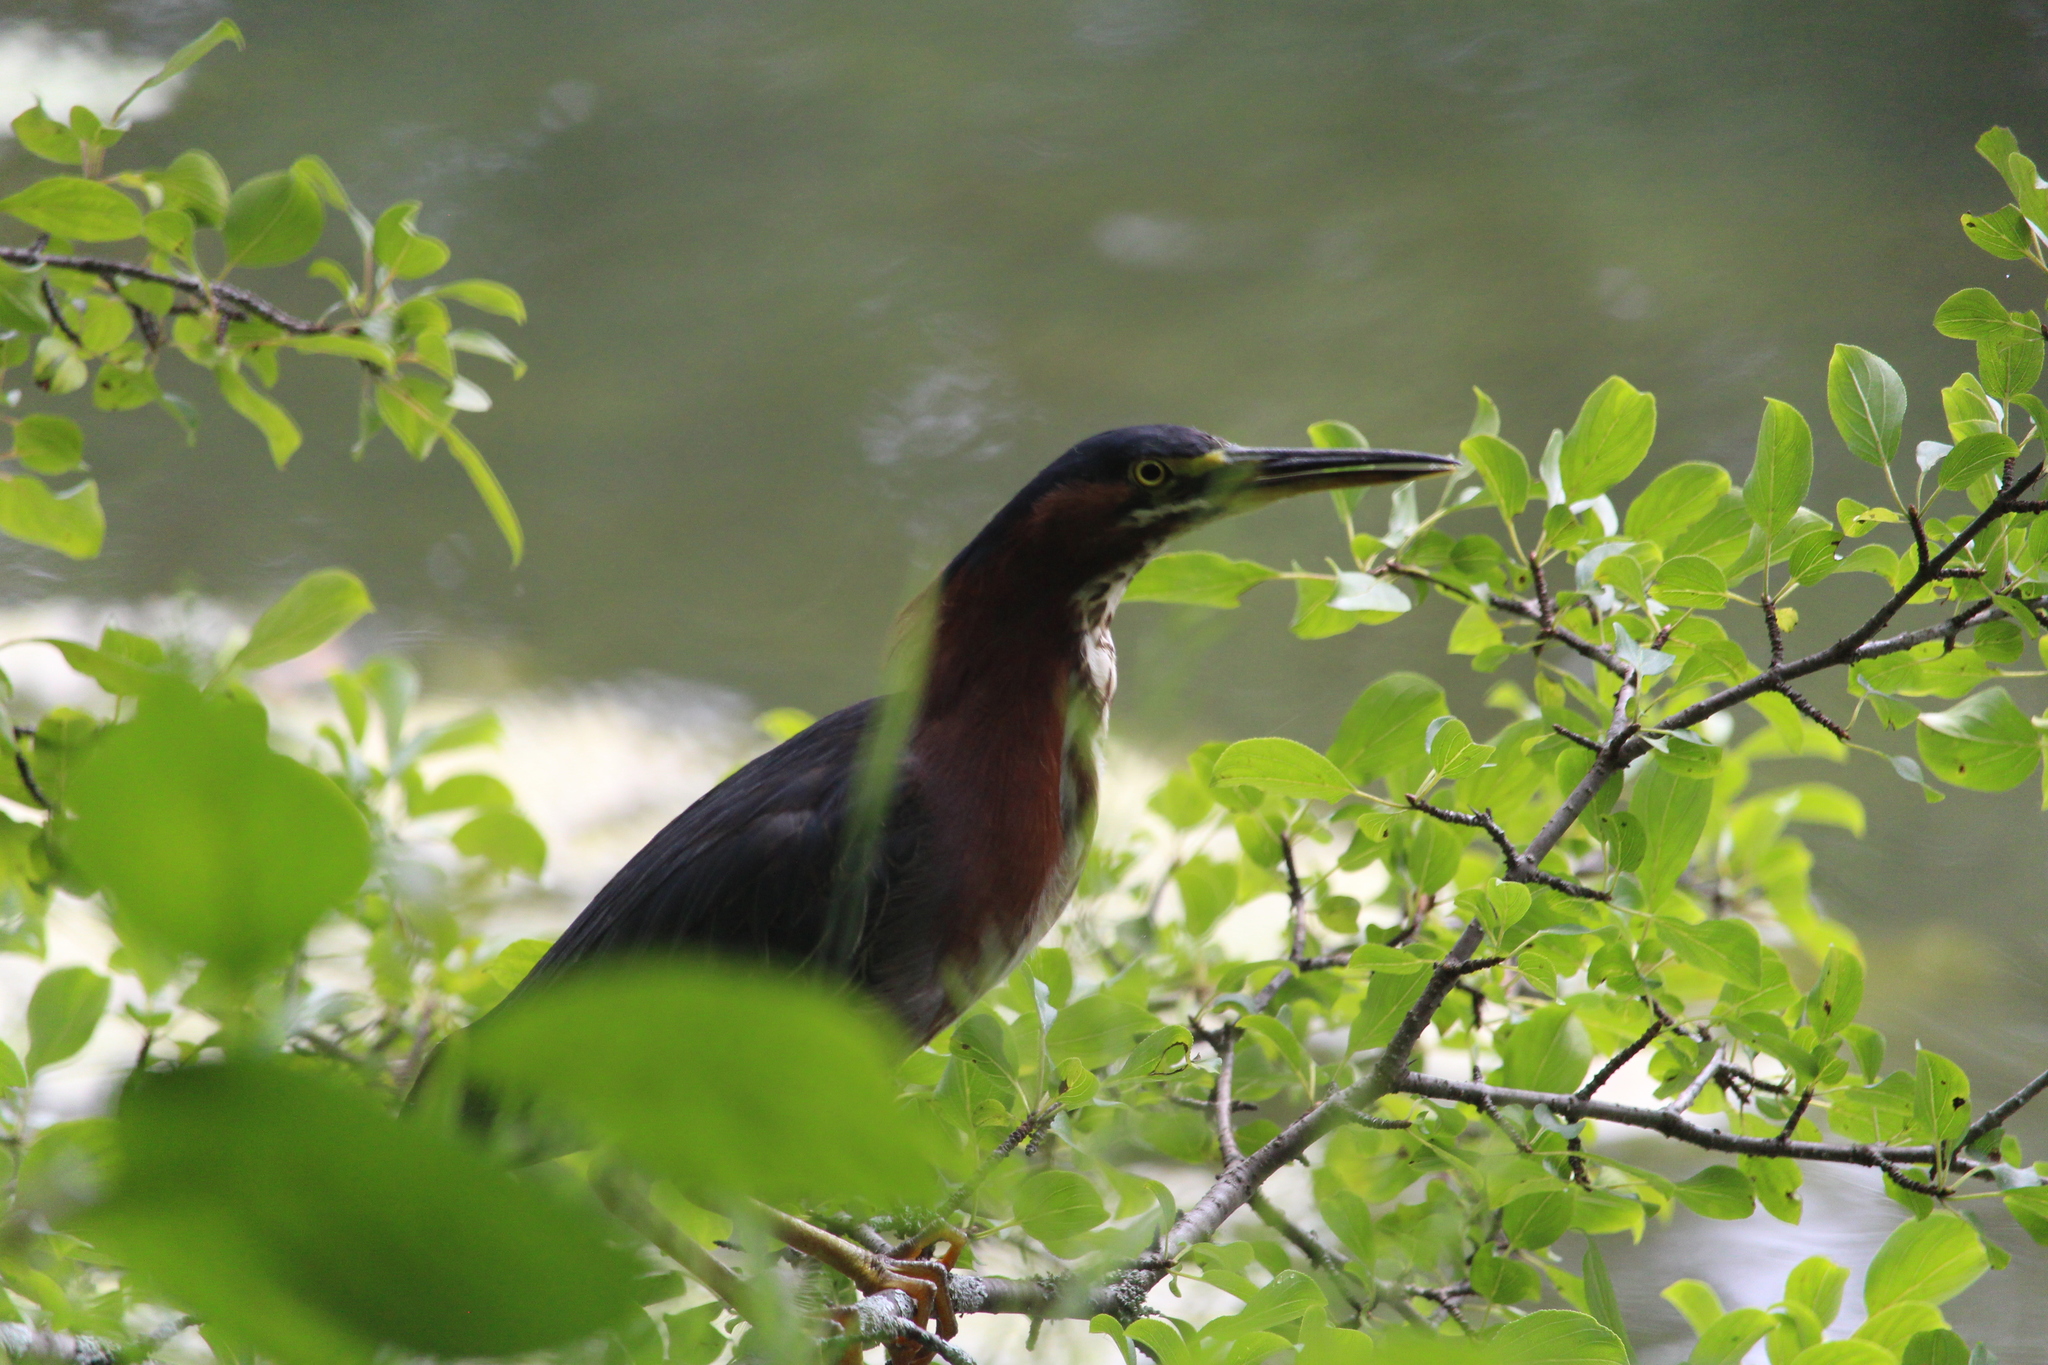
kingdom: Animalia
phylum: Chordata
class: Aves
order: Pelecaniformes
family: Ardeidae
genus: Butorides
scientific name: Butorides virescens
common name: Green heron
